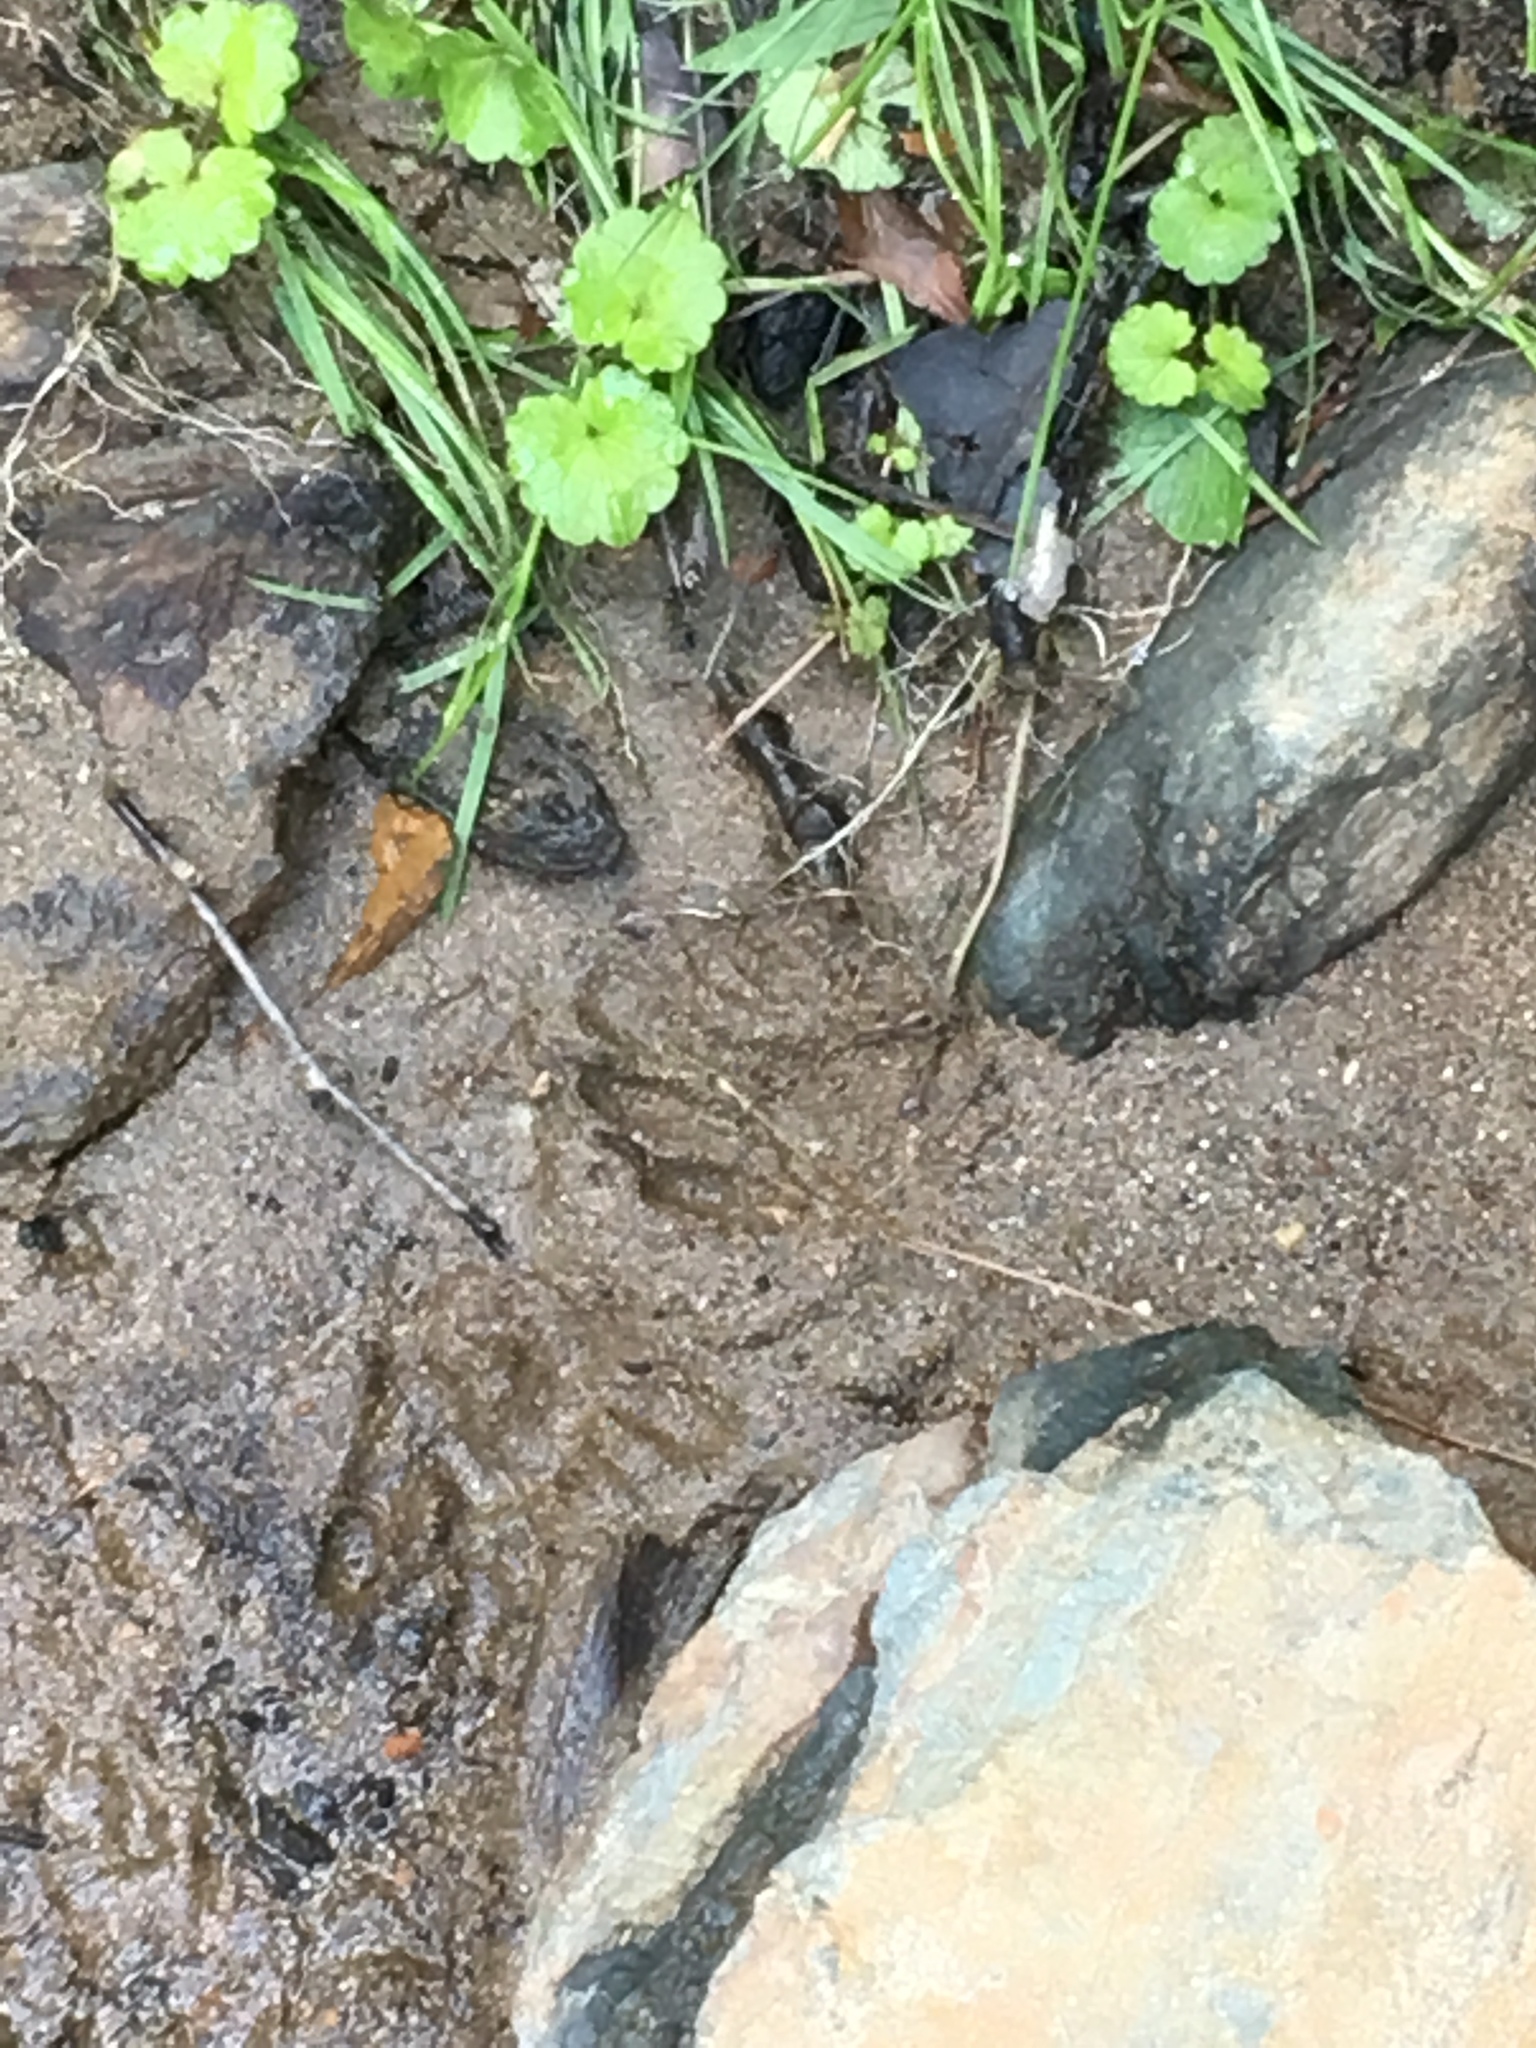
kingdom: Animalia
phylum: Chordata
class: Mammalia
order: Carnivora
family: Mustelidae
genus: Lontra
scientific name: Lontra canadensis
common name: North american river otter
